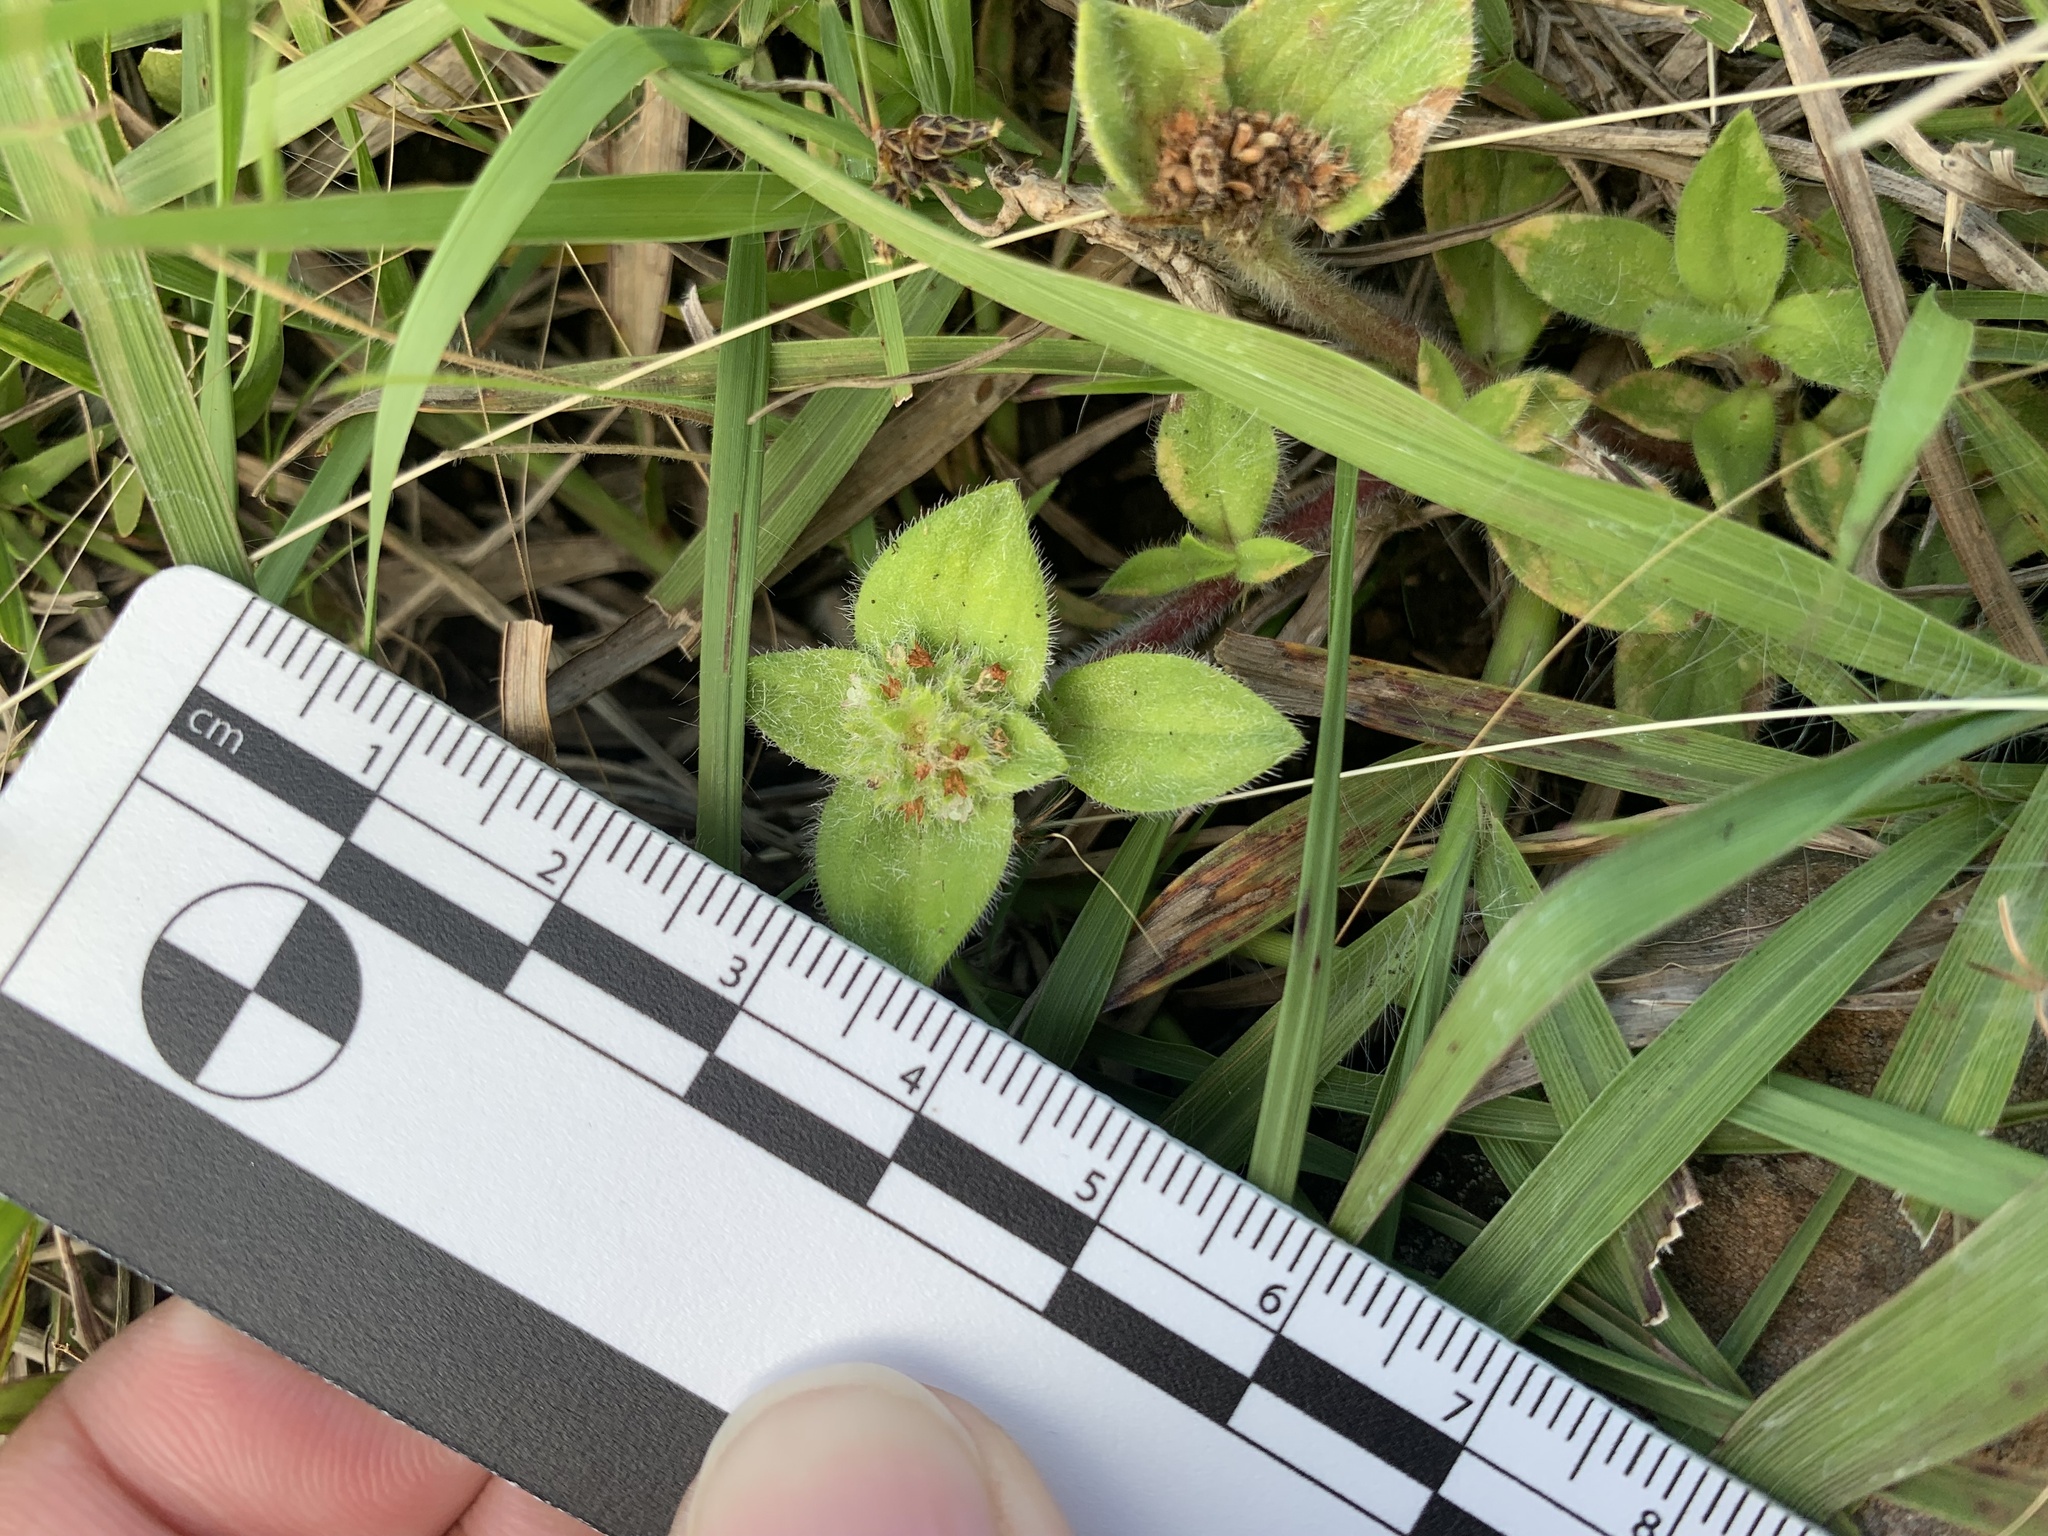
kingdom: Plantae
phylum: Tracheophyta
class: Magnoliopsida
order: Gentianales
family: Rubiaceae
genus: Richardia
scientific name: Richardia humistrata
